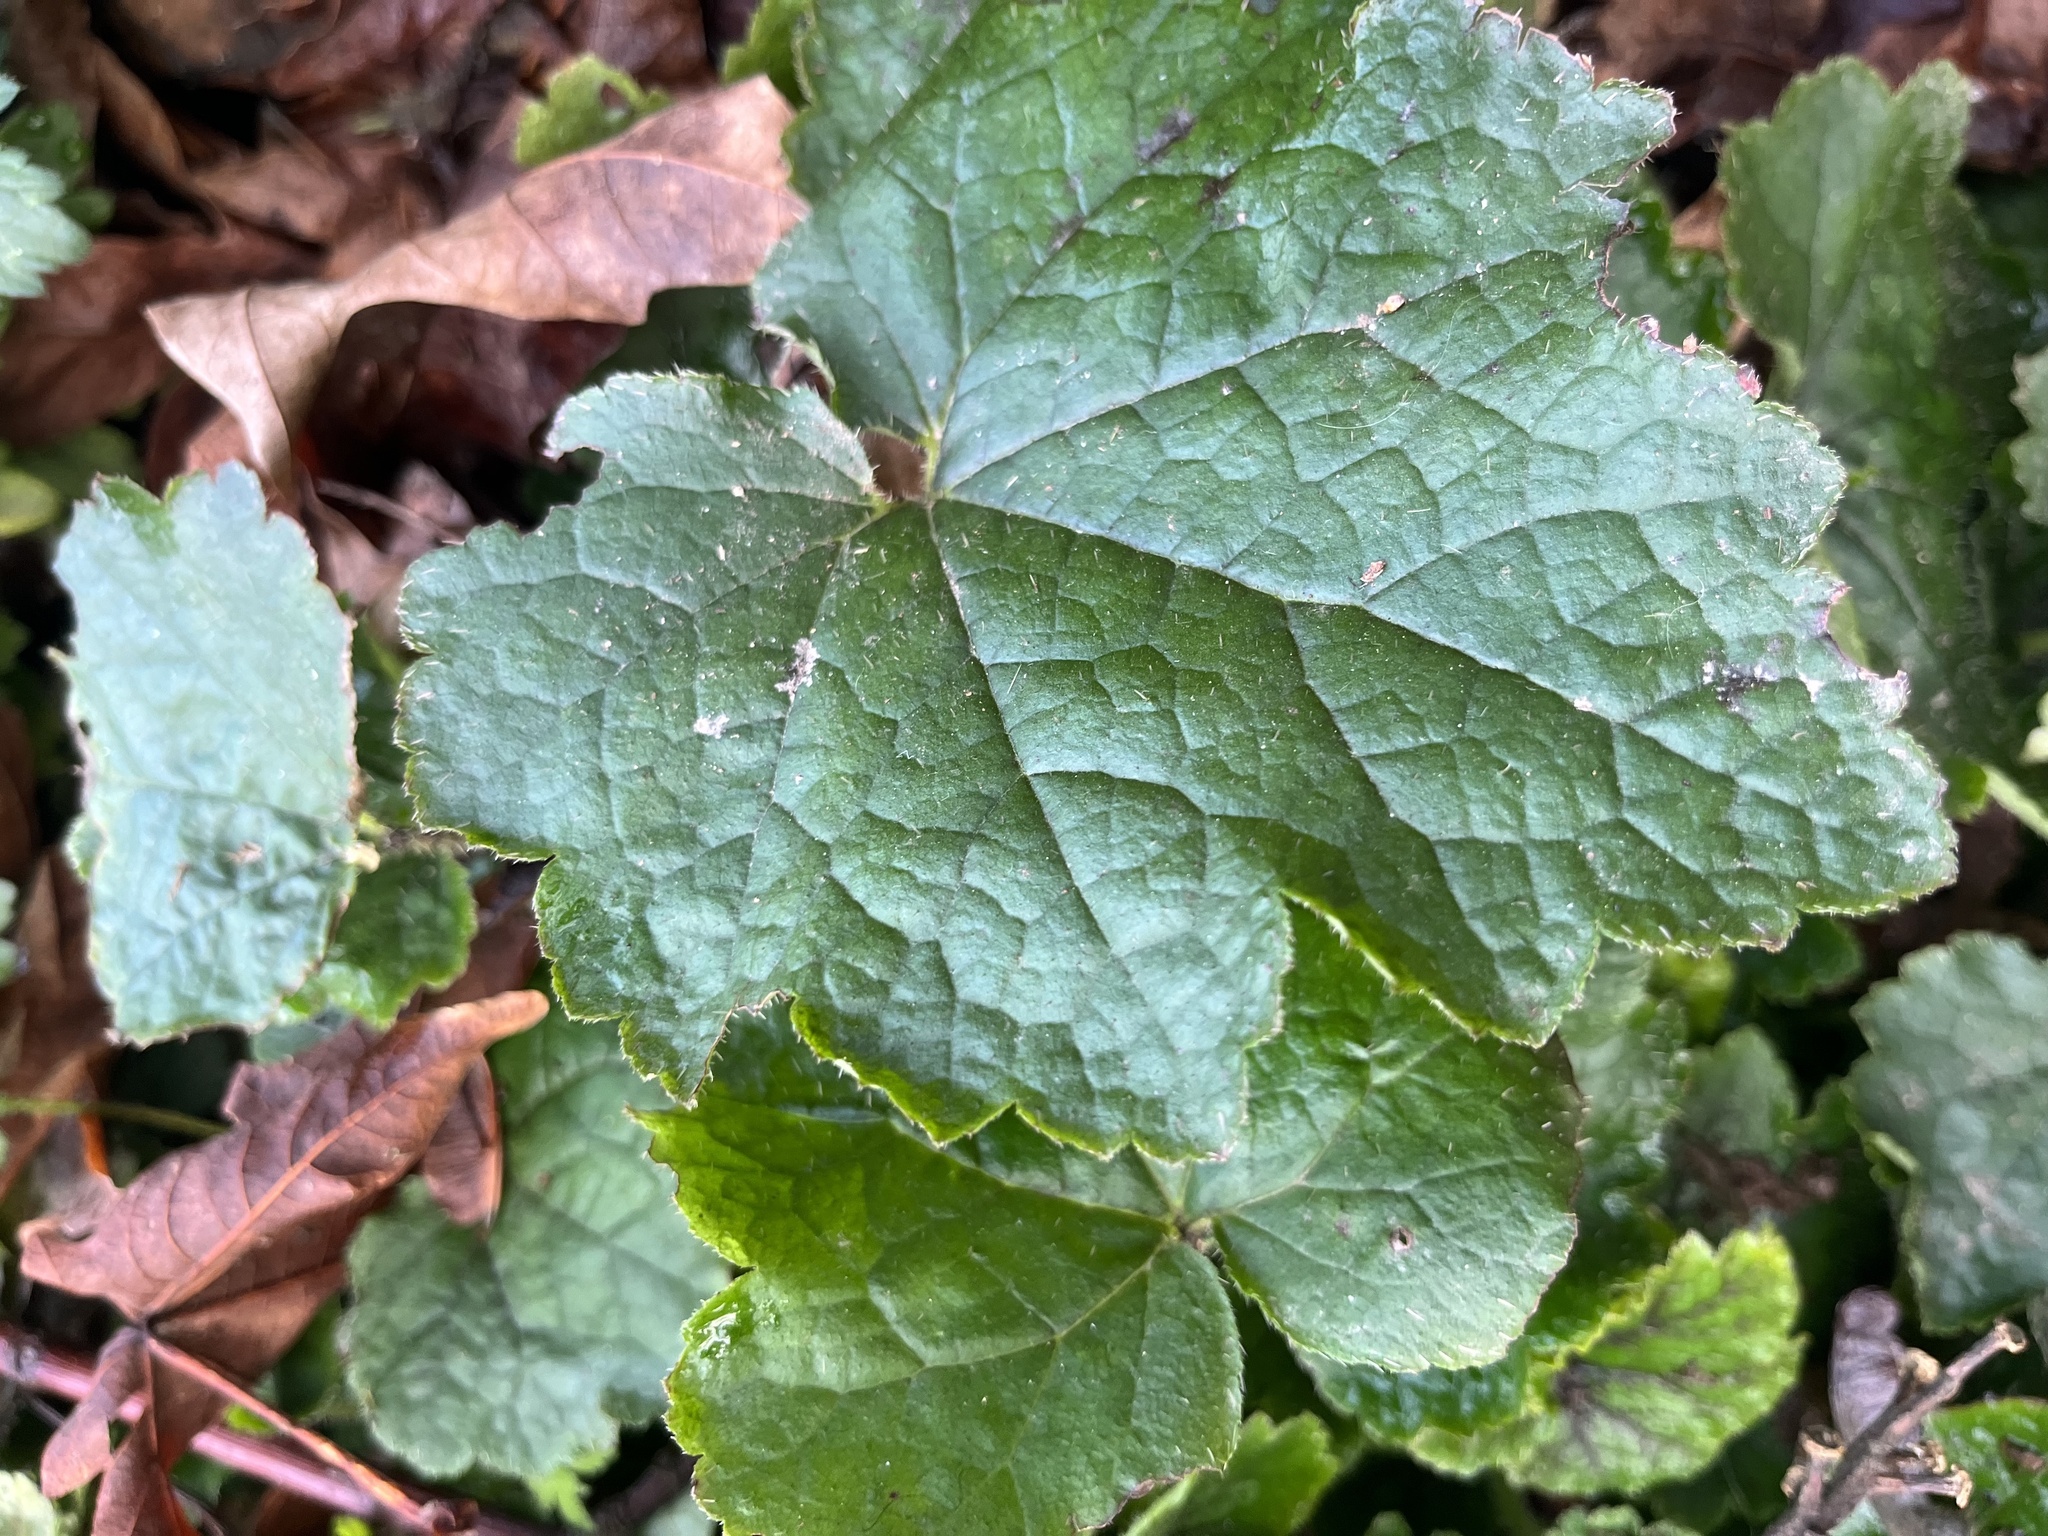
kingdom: Plantae
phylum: Tracheophyta
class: Magnoliopsida
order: Saxifragales
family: Saxifragaceae
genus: Tellima
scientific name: Tellima grandiflora
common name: Fringecups
